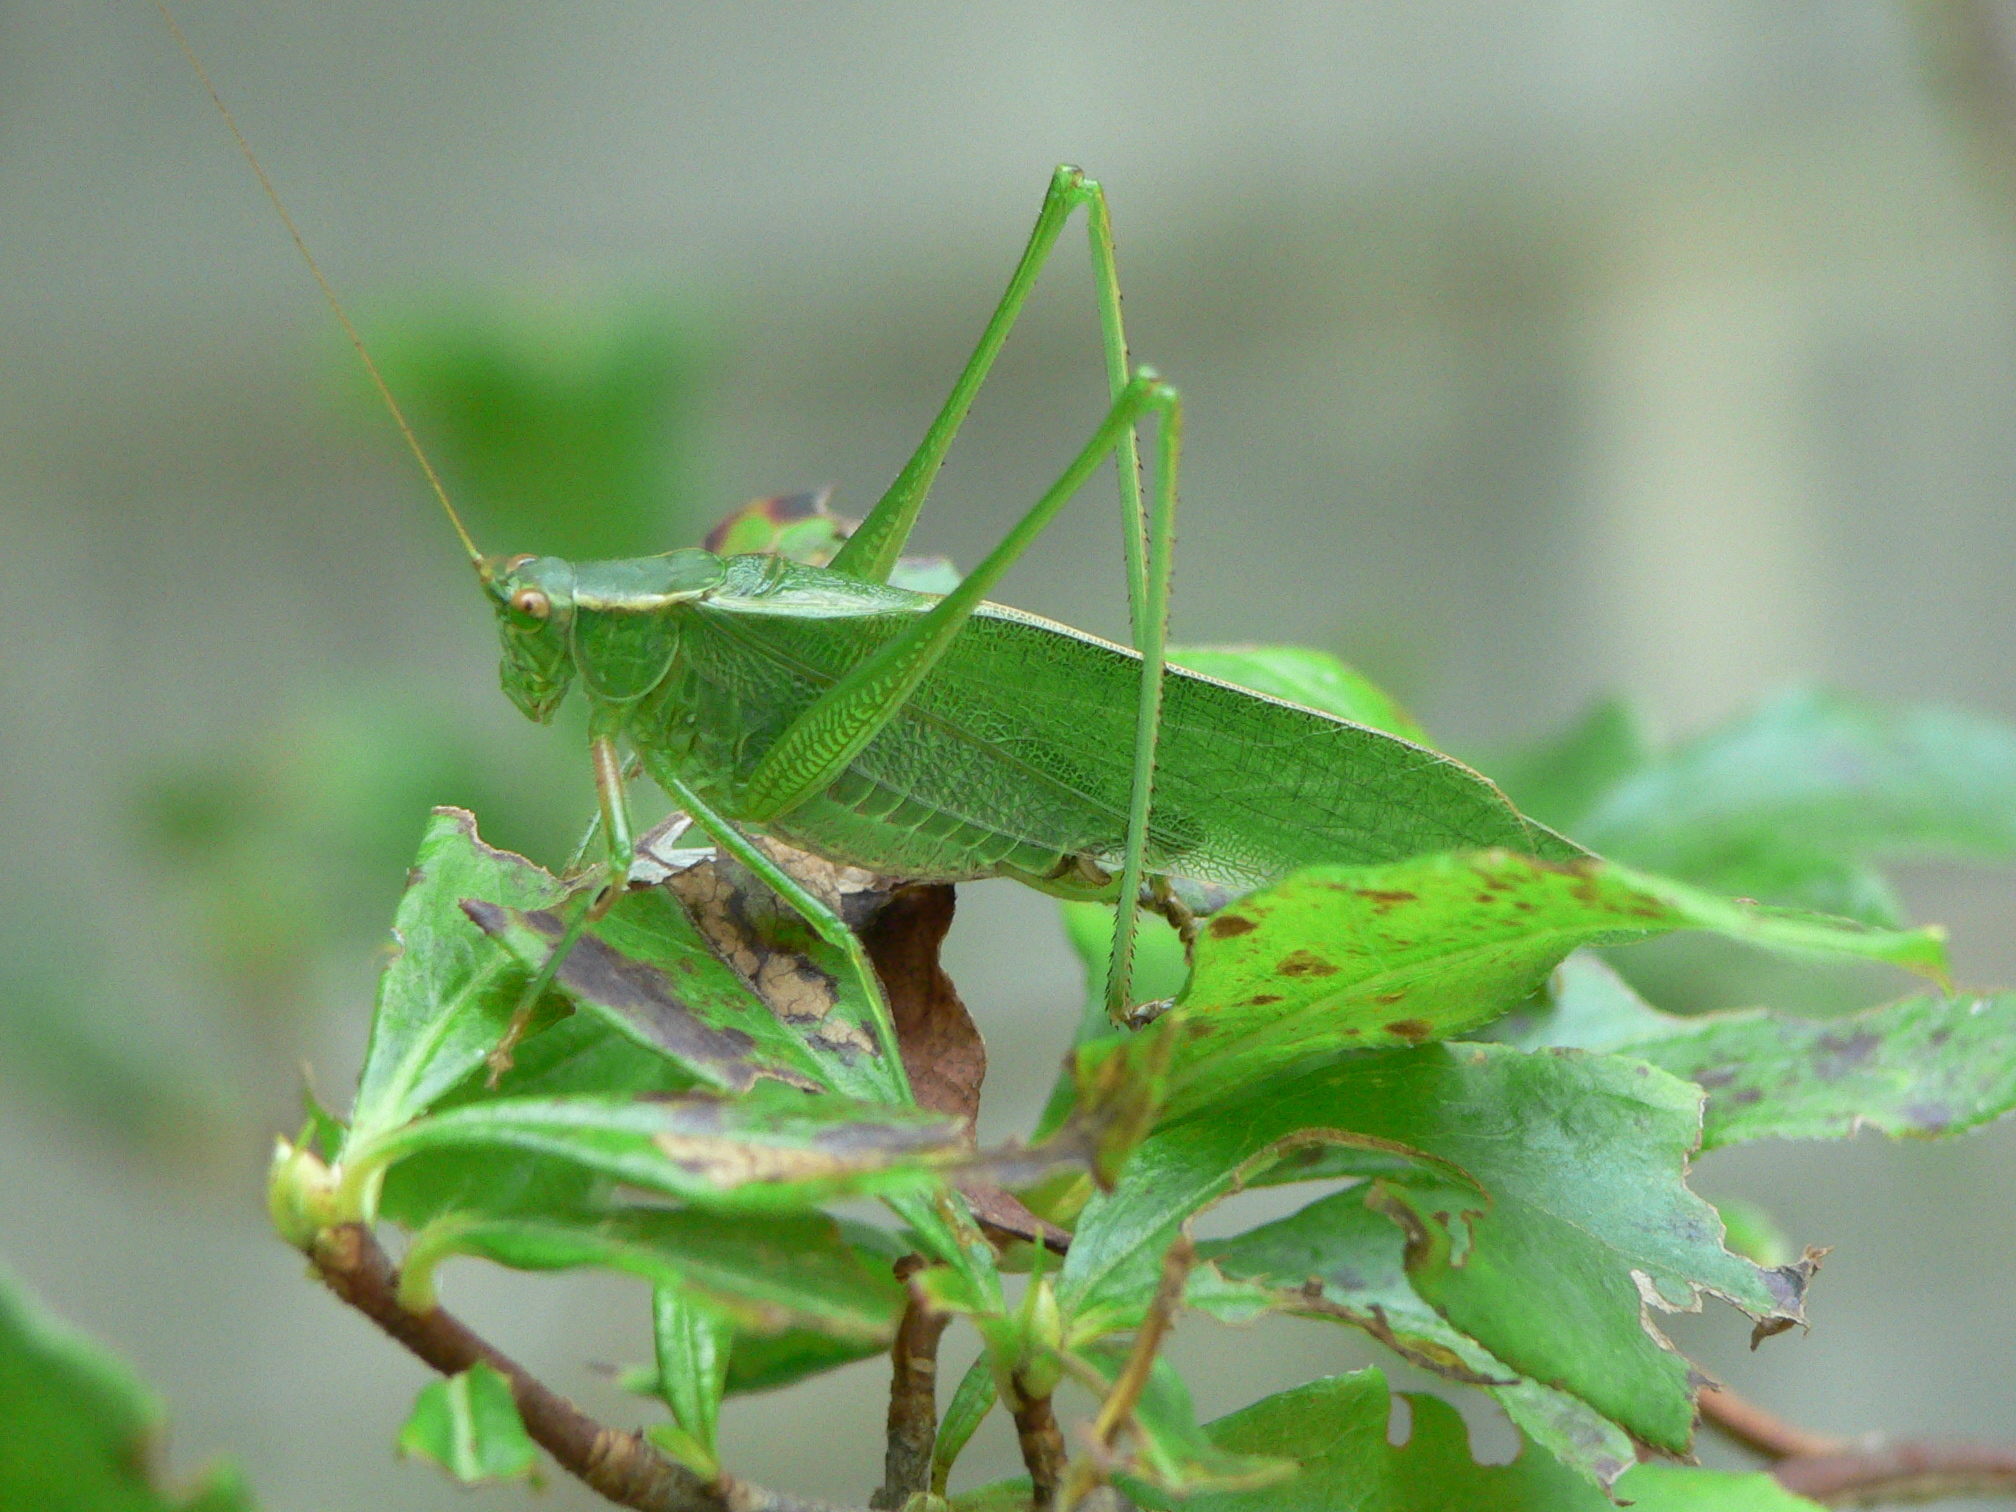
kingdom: Animalia
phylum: Arthropoda
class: Insecta
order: Orthoptera
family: Tettigoniidae
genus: Scudderia
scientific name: Scudderia furcata
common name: Fork-tailed bush katydid
